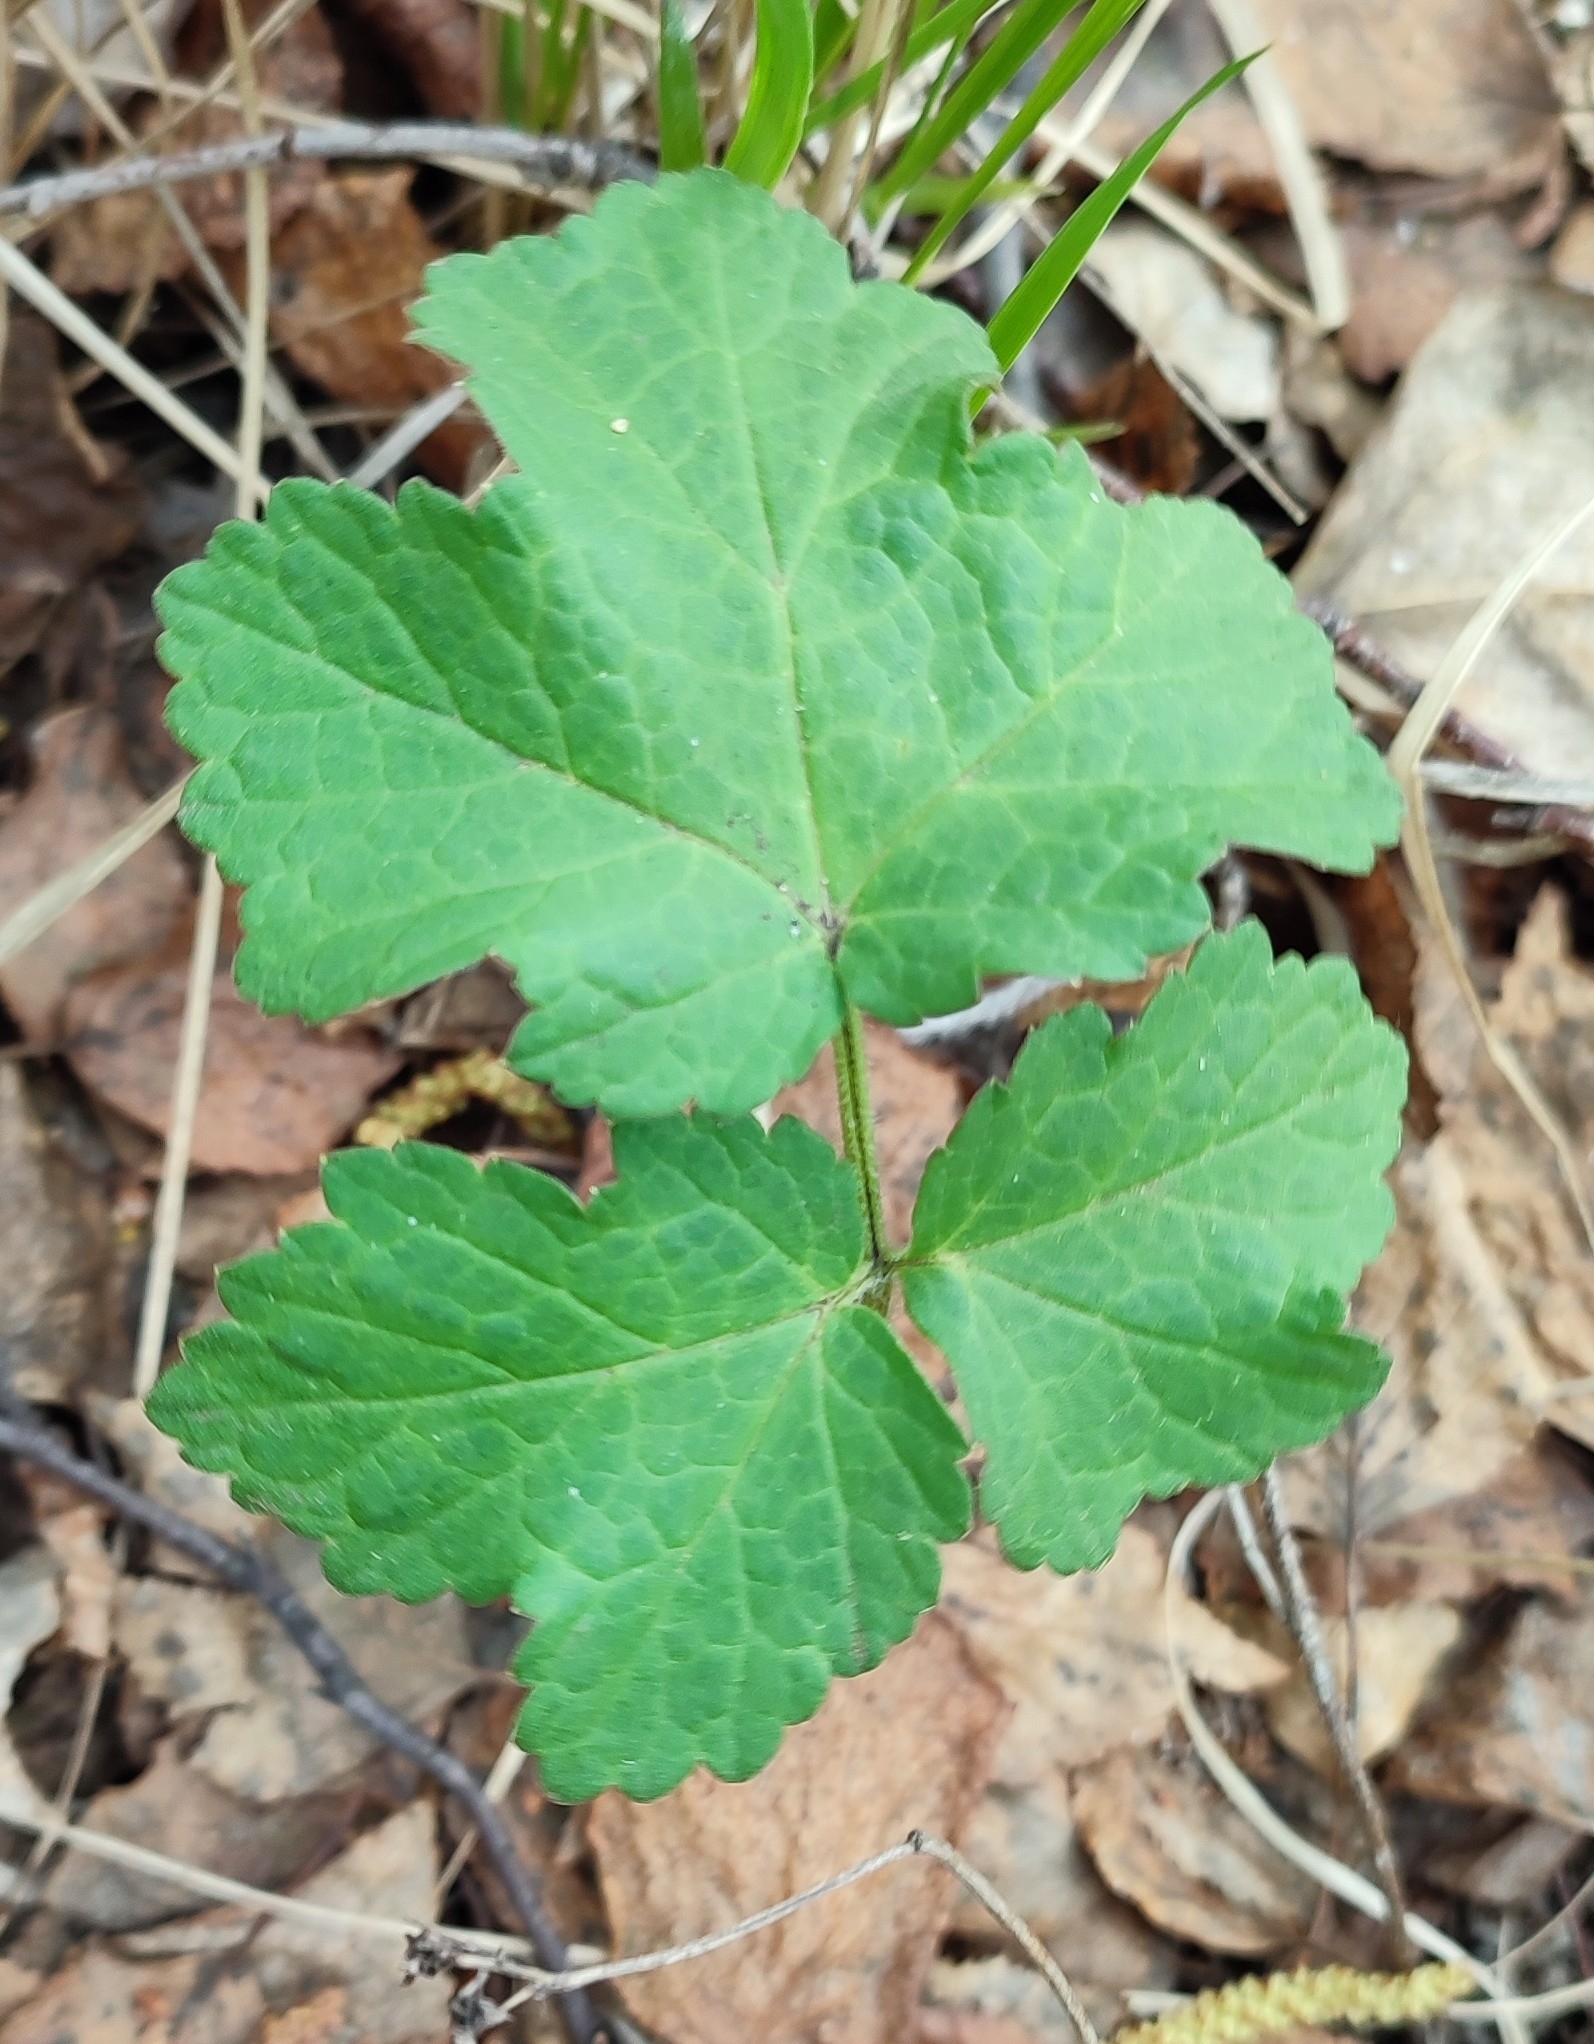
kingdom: Plantae
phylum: Tracheophyta
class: Magnoliopsida
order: Apiales
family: Apiaceae
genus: Heracleum
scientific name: Heracleum sphondylium
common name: Hogweed
